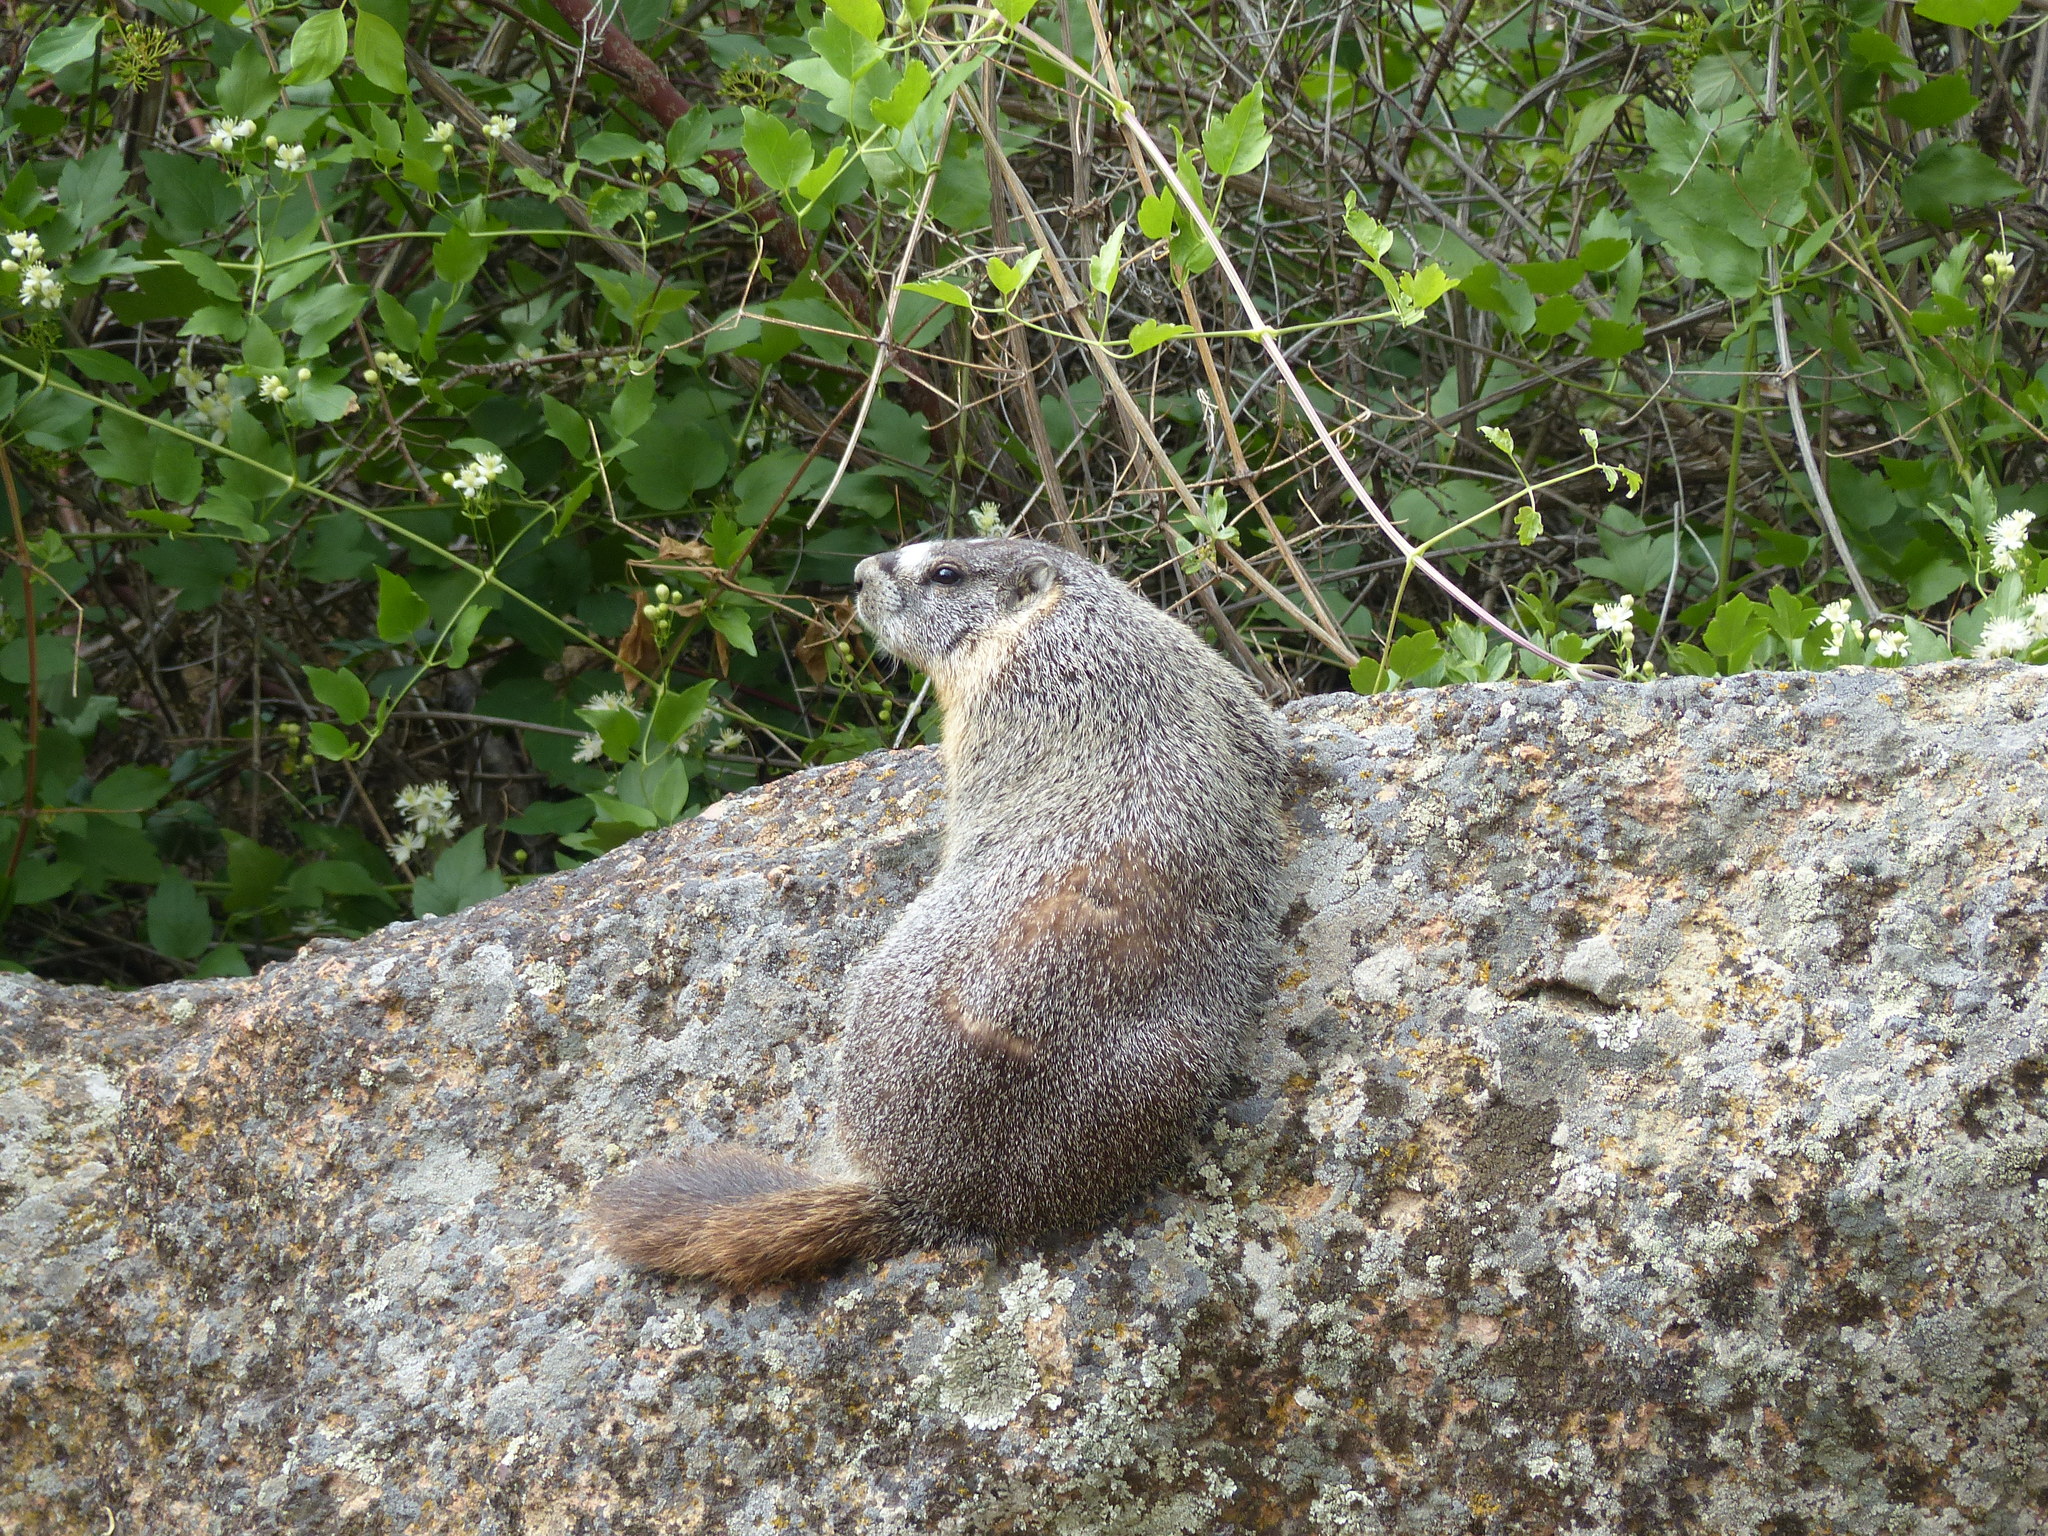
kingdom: Animalia
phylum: Chordata
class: Mammalia
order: Rodentia
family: Sciuridae
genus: Marmota
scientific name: Marmota flaviventris
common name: Yellow-bellied marmot
